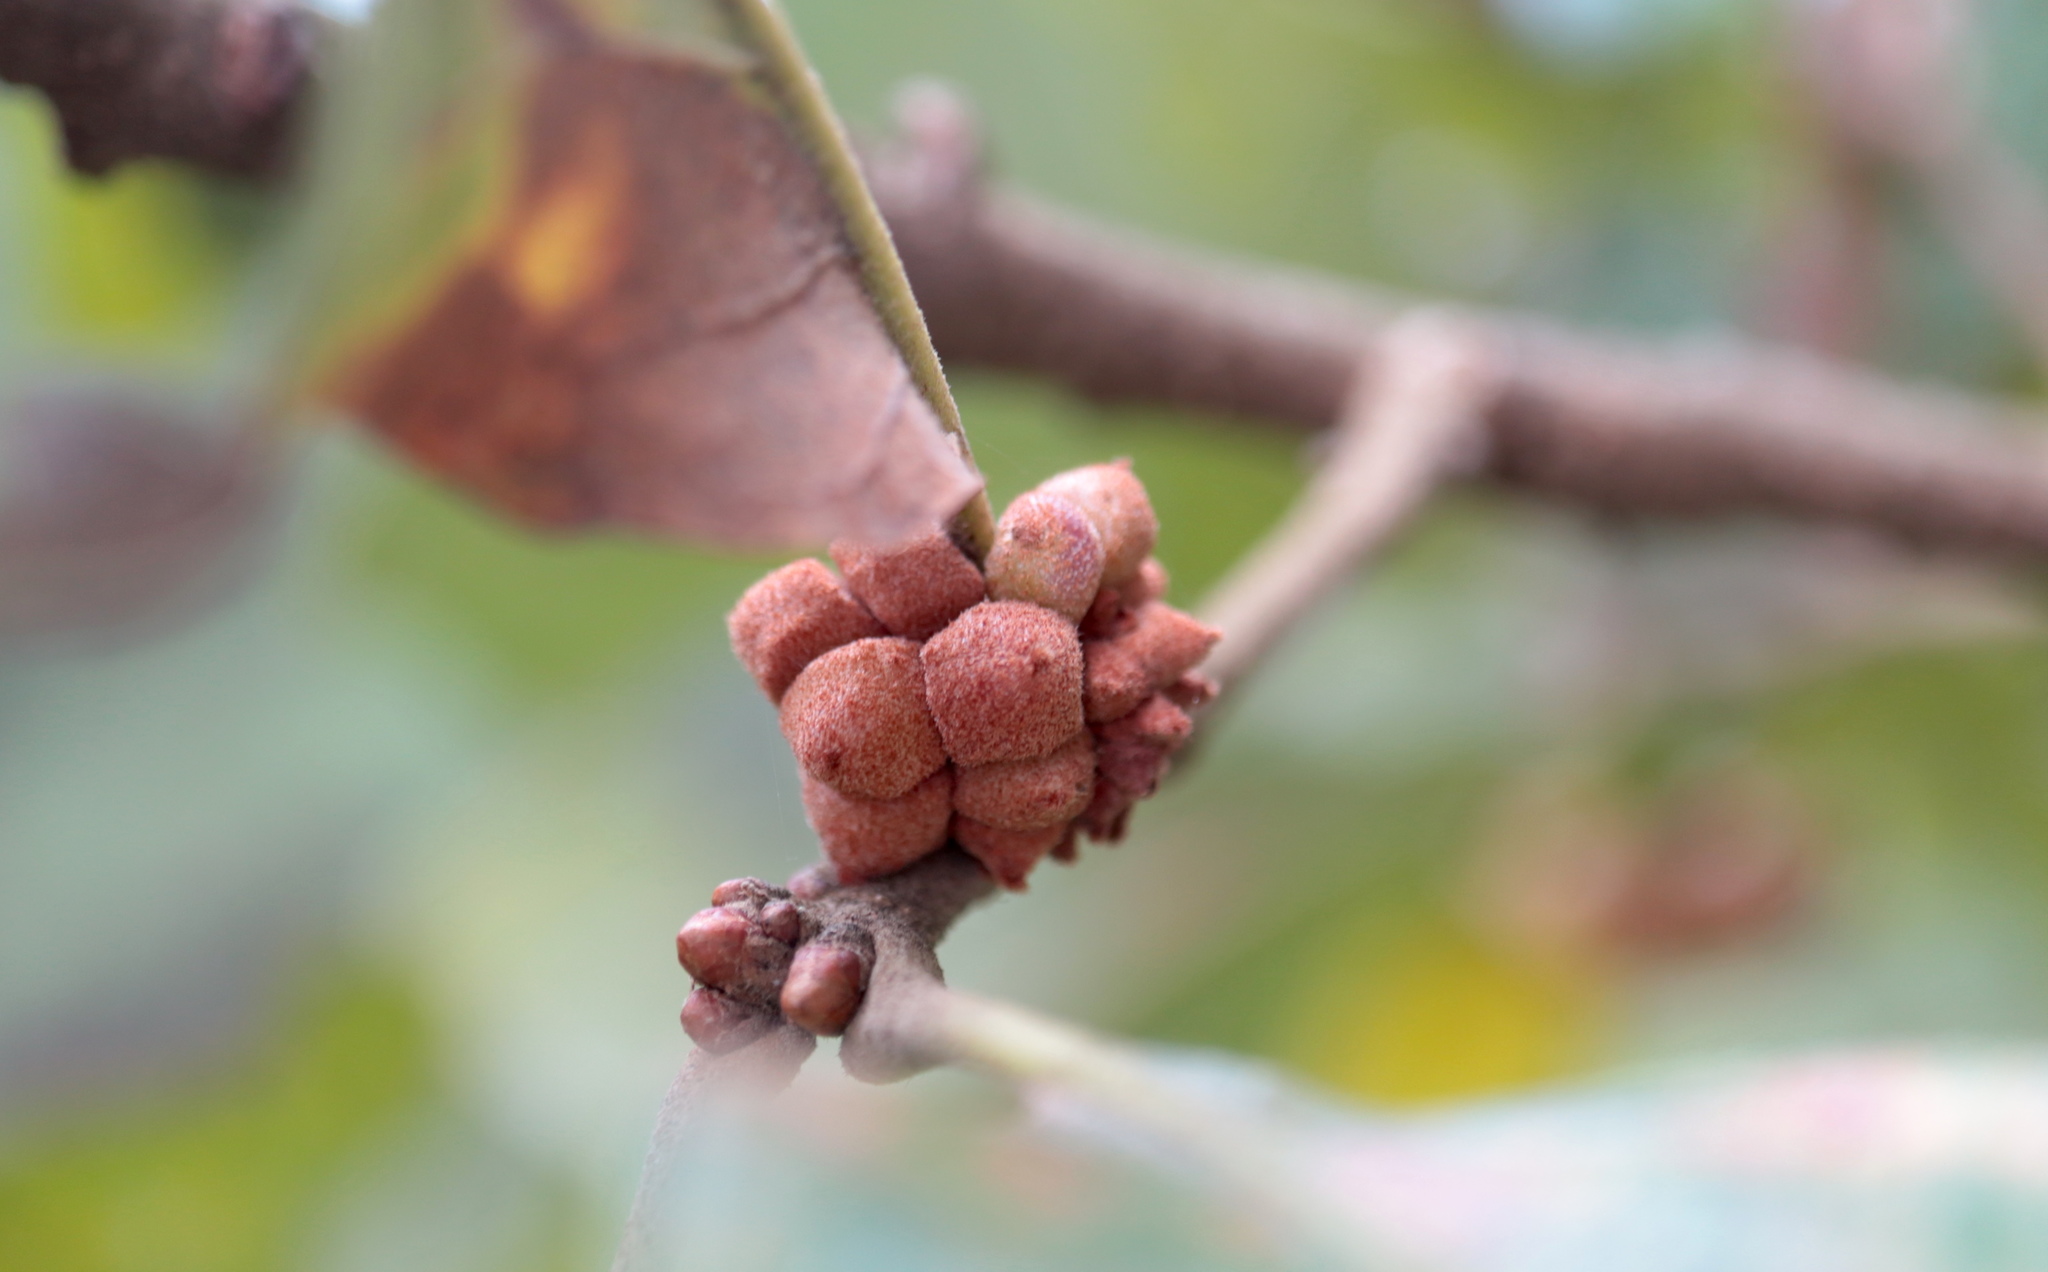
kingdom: Animalia
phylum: Arthropoda
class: Insecta
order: Hymenoptera
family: Cynipidae
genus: Andricus
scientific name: Andricus
